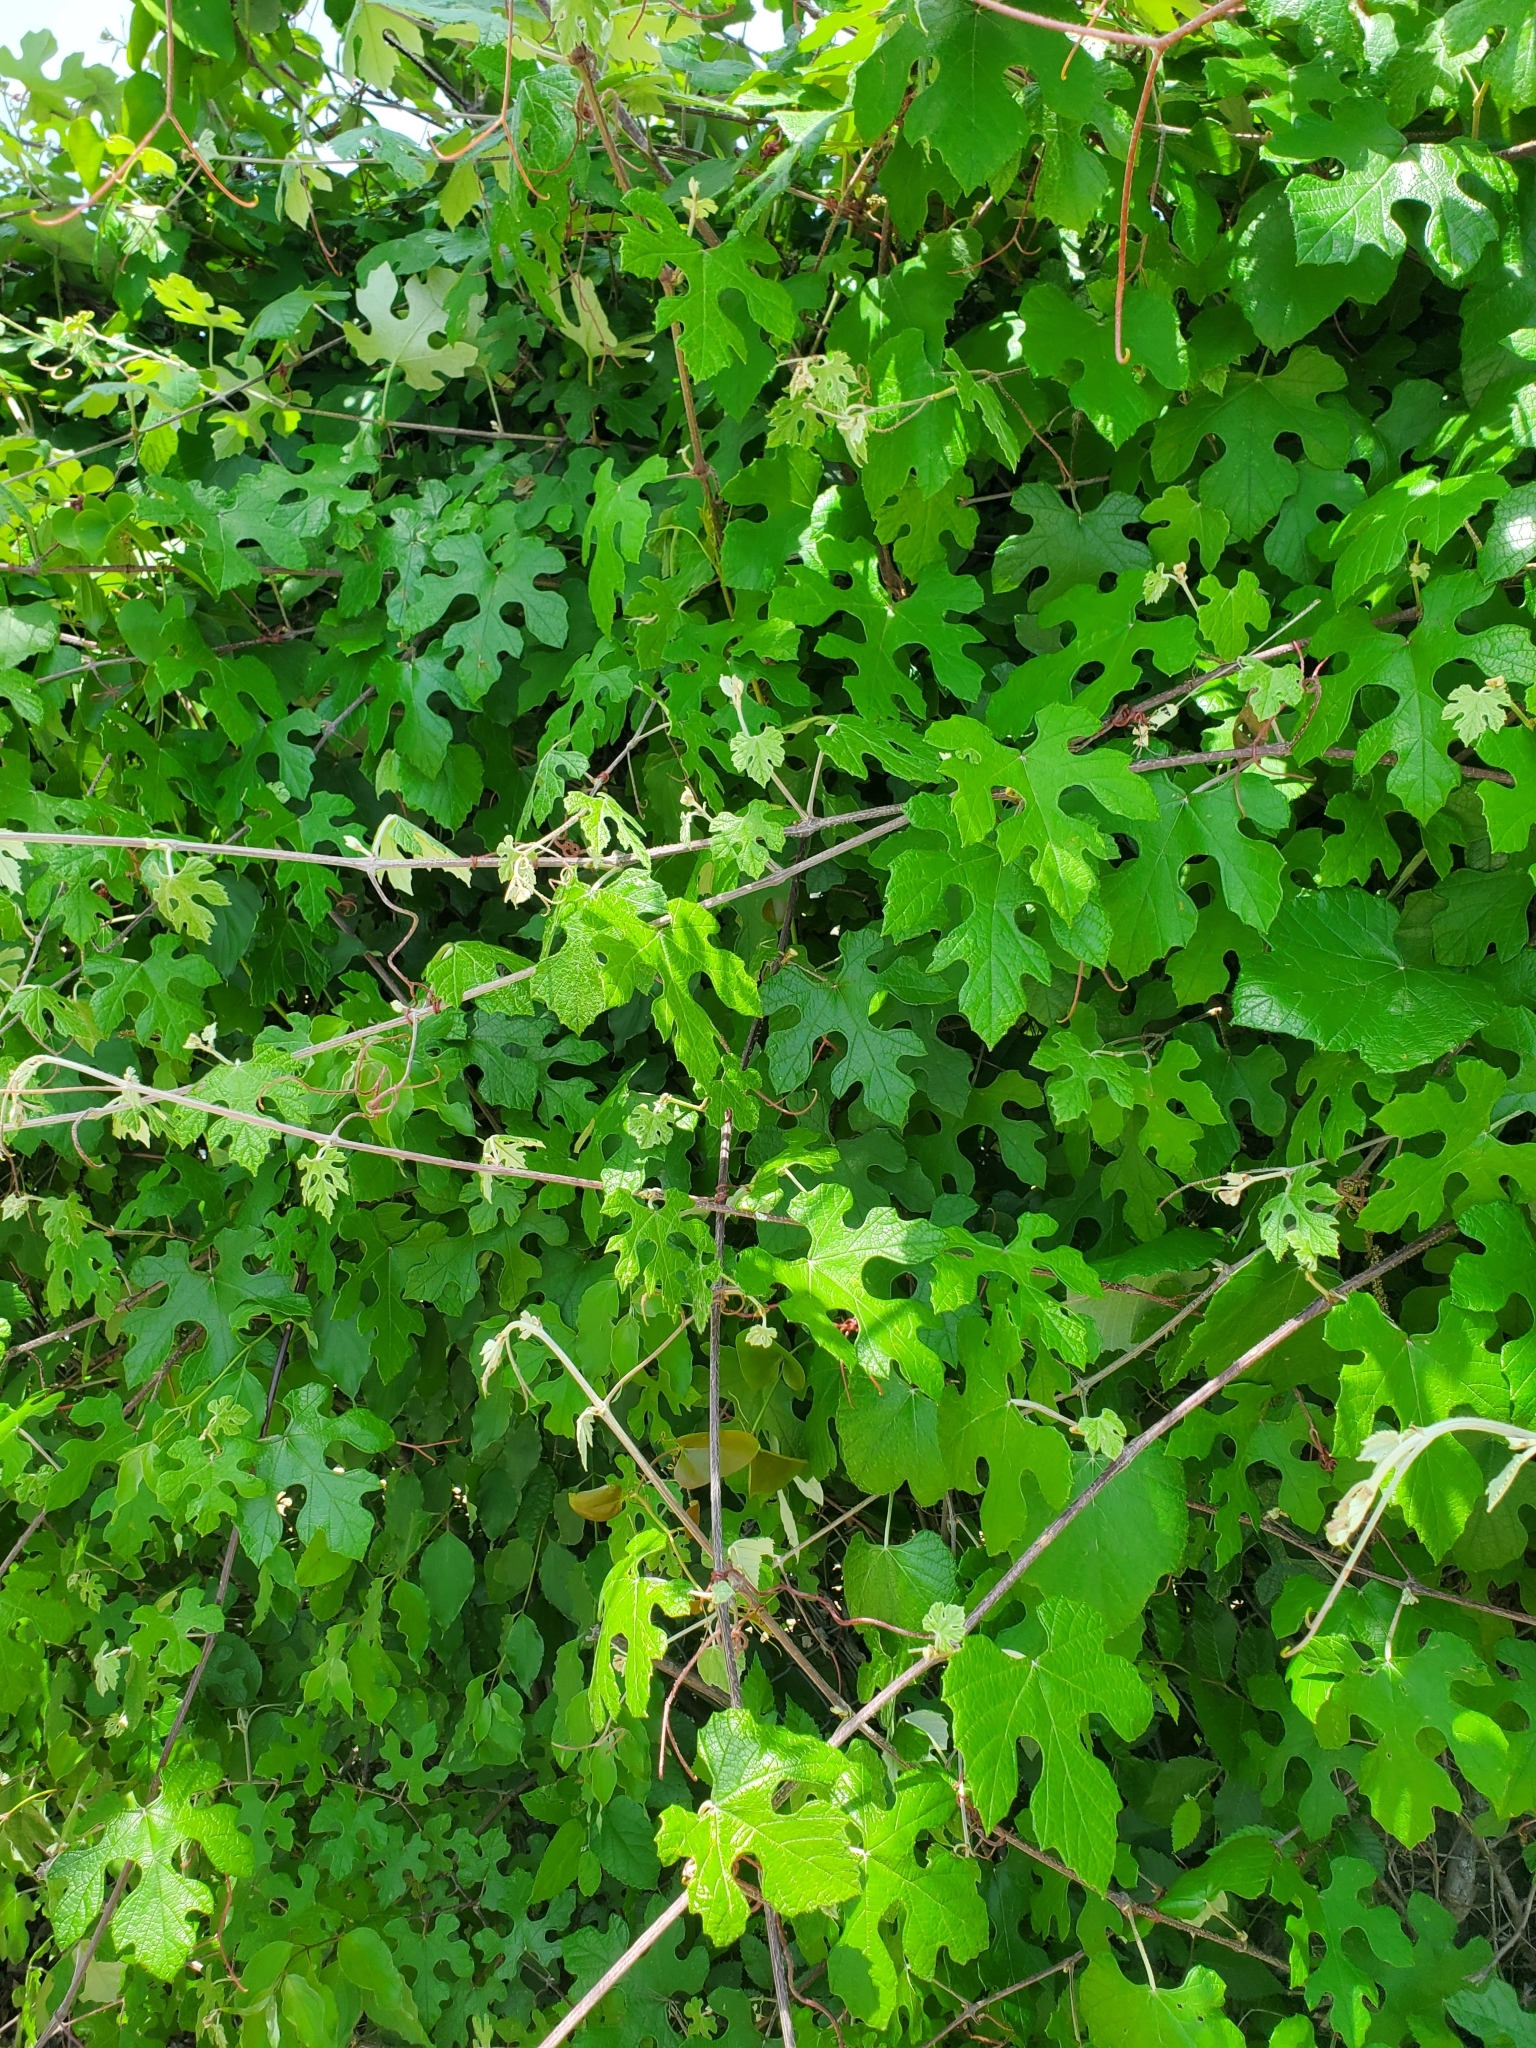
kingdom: Plantae
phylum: Tracheophyta
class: Magnoliopsida
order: Vitales
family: Vitaceae
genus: Vitis
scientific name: Vitis mustangensis
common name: Mustang grape
